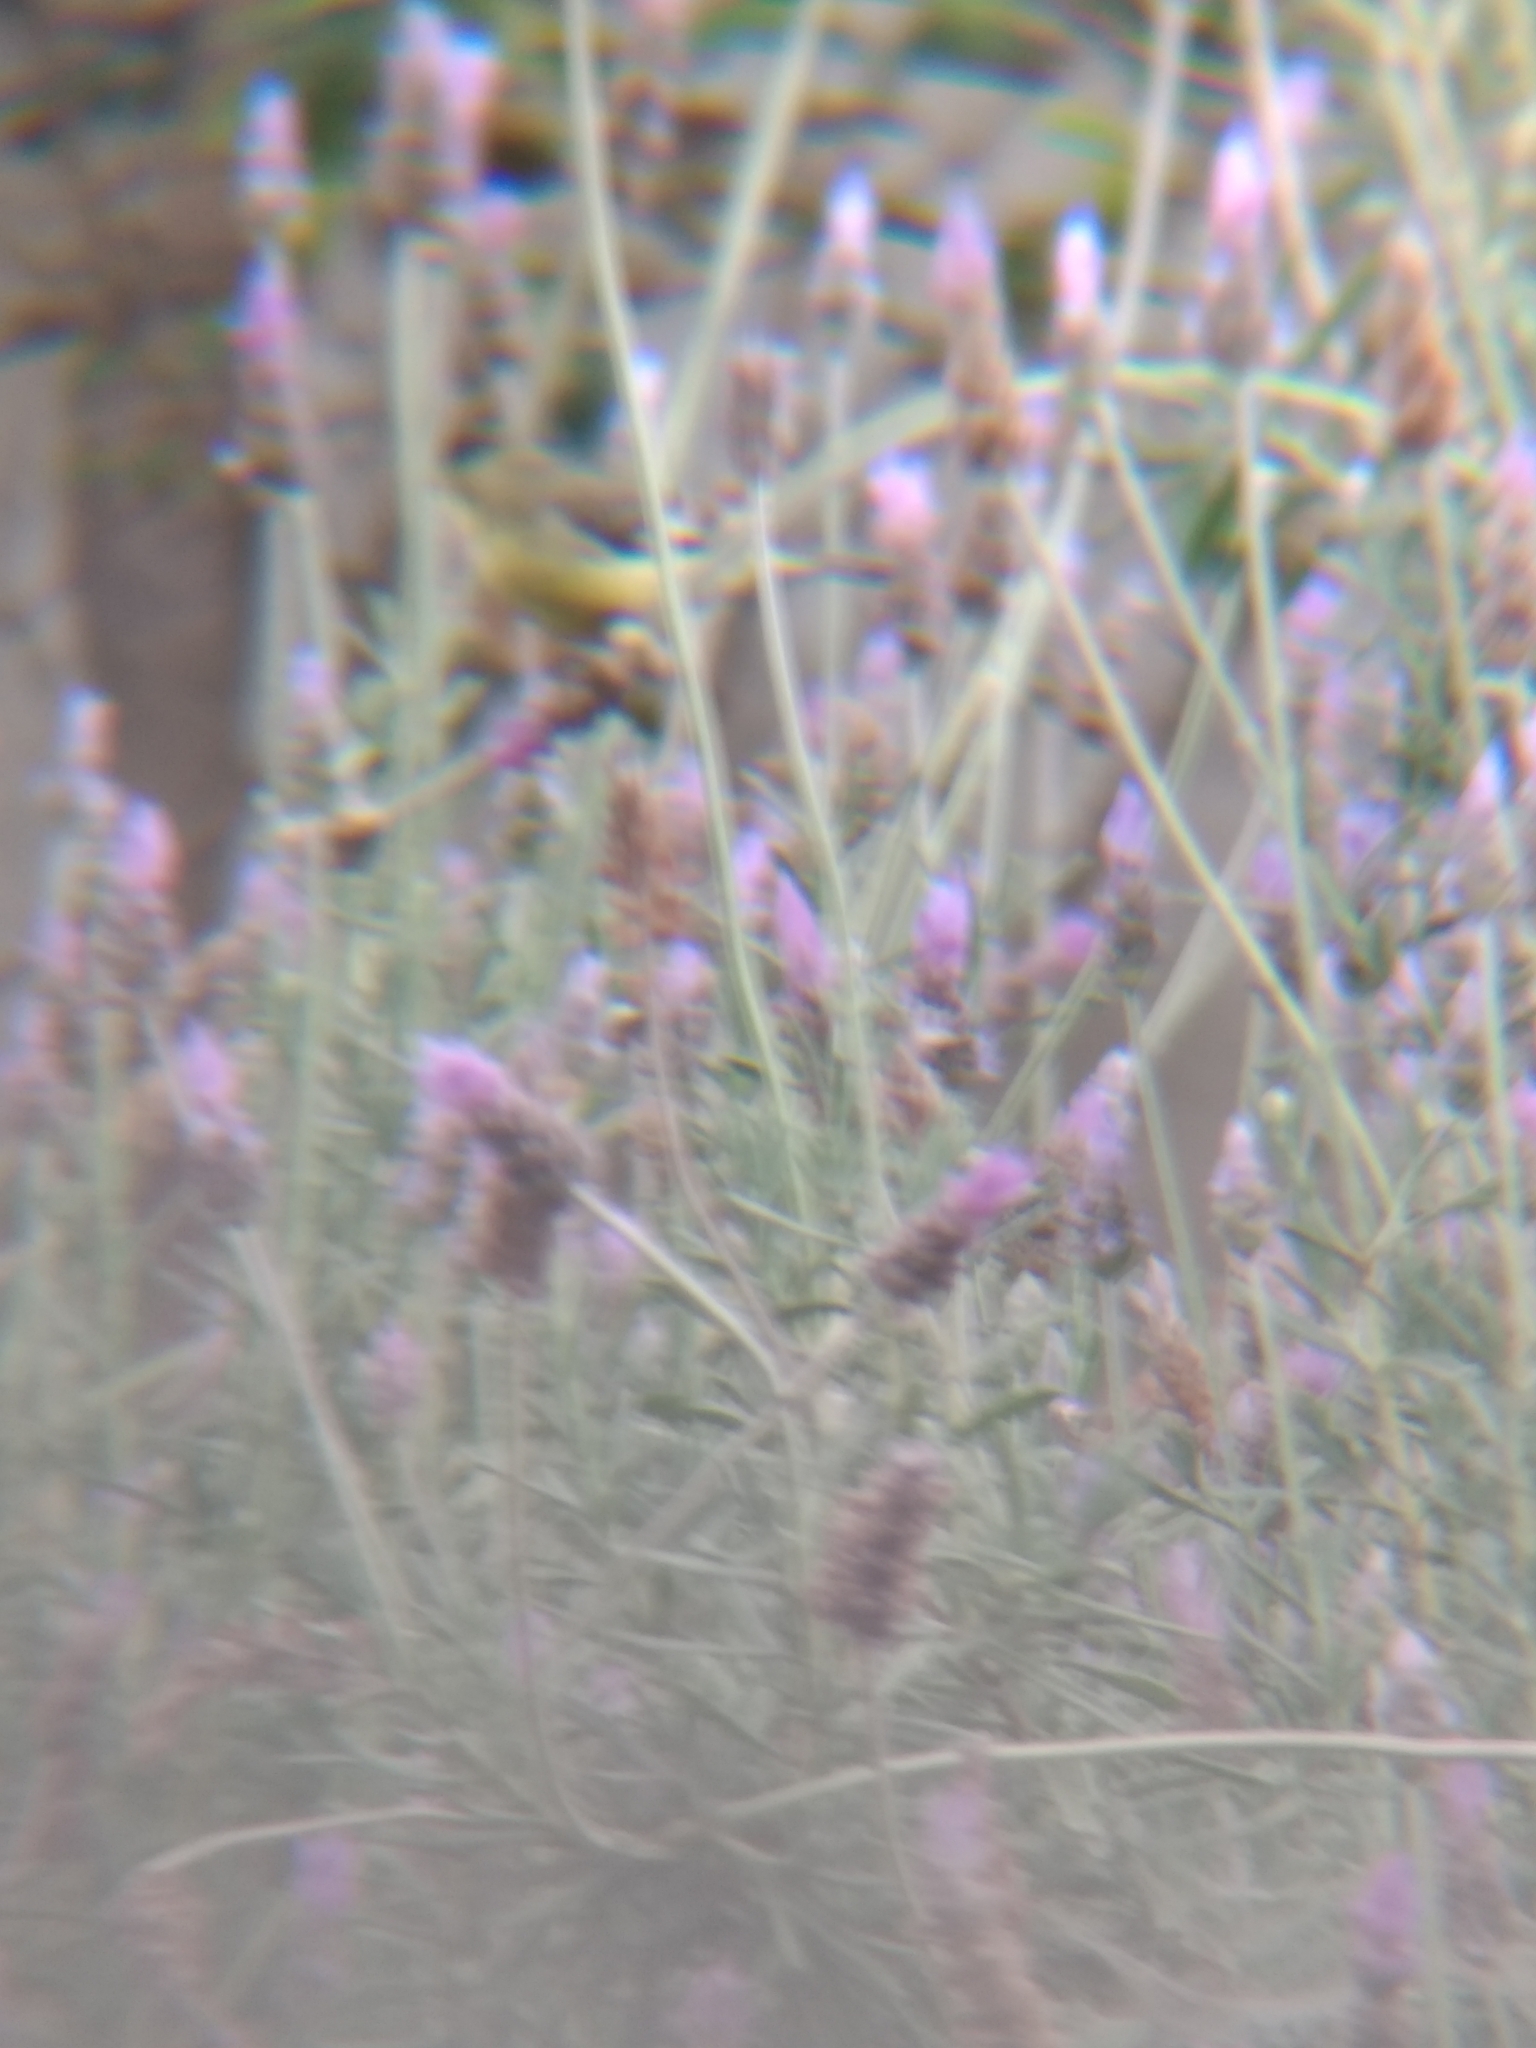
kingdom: Animalia
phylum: Chordata
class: Aves
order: Passeriformes
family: Fringillidae
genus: Spinus
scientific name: Spinus psaltria
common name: Lesser goldfinch
